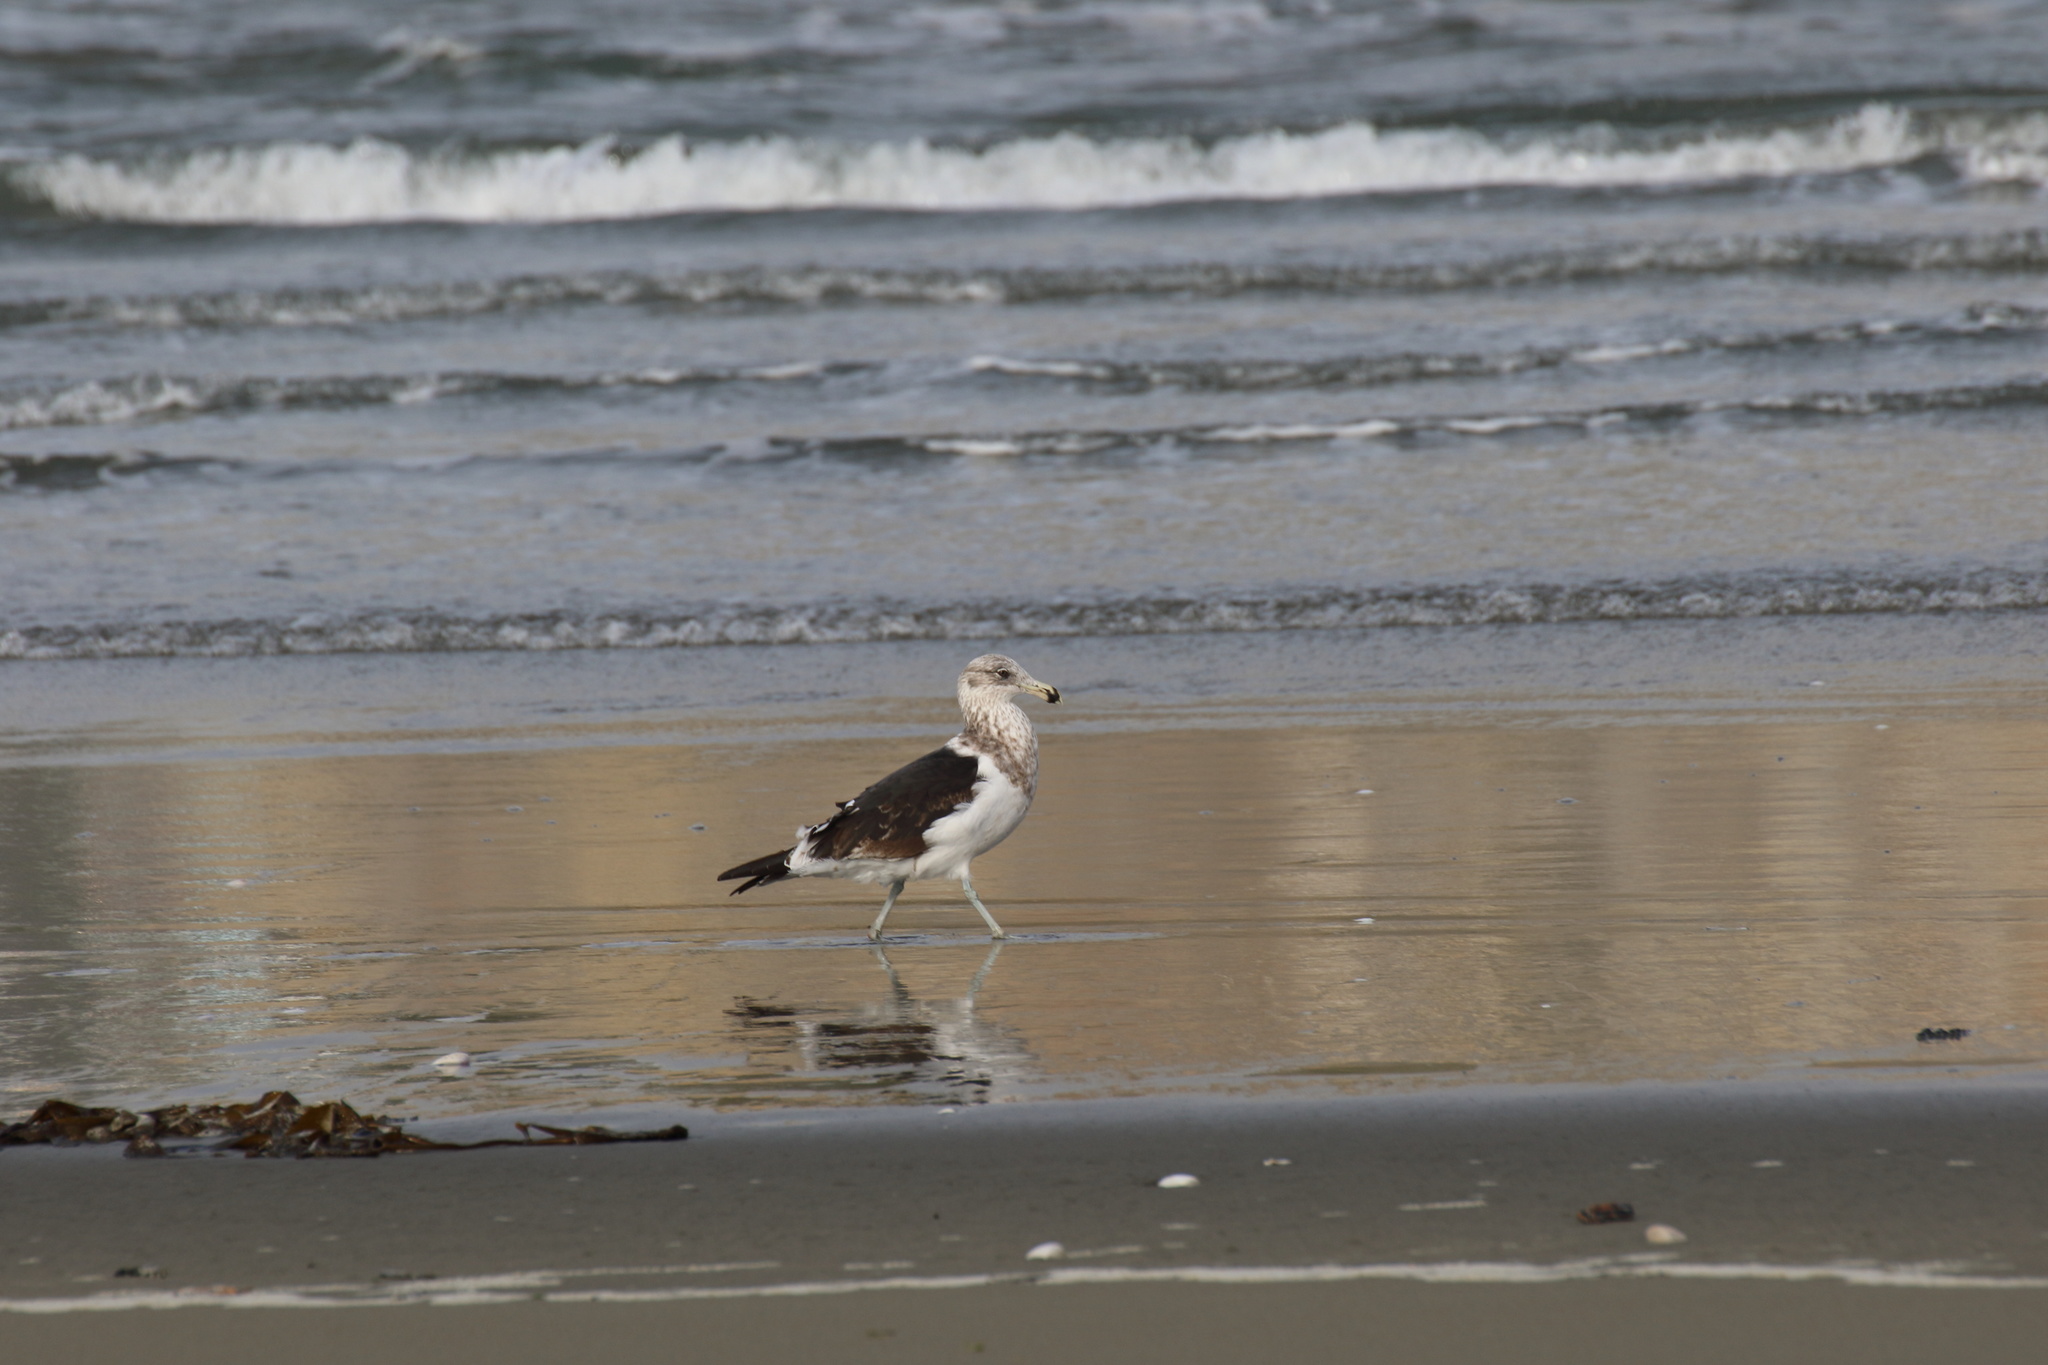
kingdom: Animalia
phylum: Chordata
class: Aves
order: Charadriiformes
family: Laridae
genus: Larus
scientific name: Larus dominicanus
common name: Kelp gull
